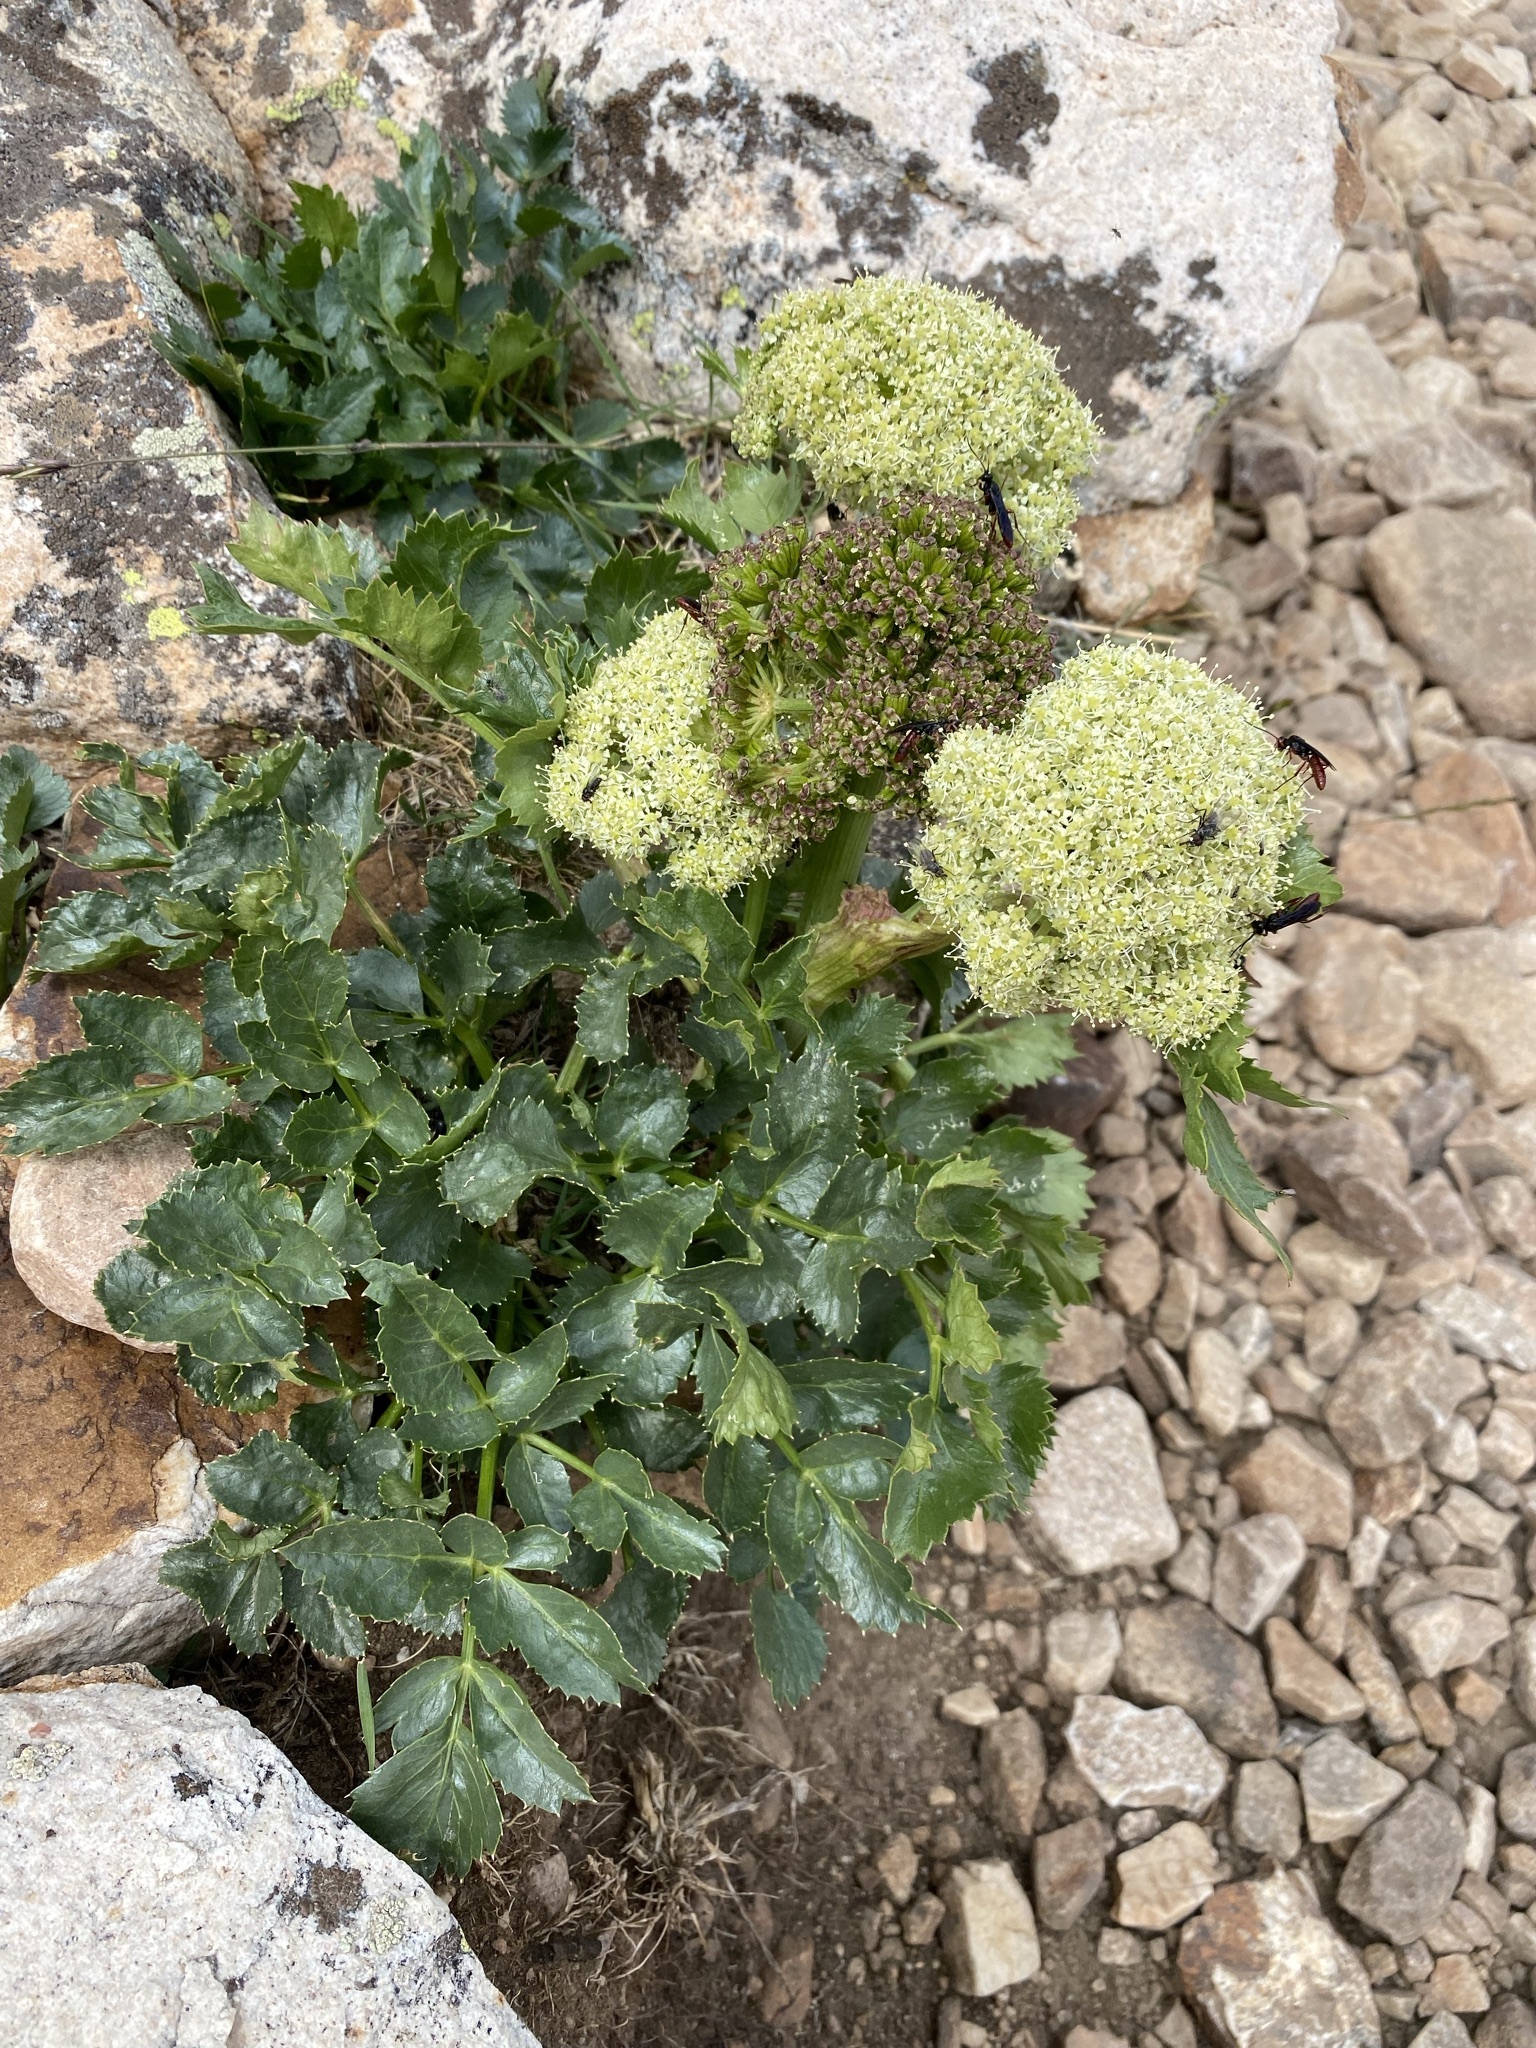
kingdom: Plantae
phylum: Tracheophyta
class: Magnoliopsida
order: Apiales
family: Apiaceae
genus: Angelica
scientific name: Angelica roseana
